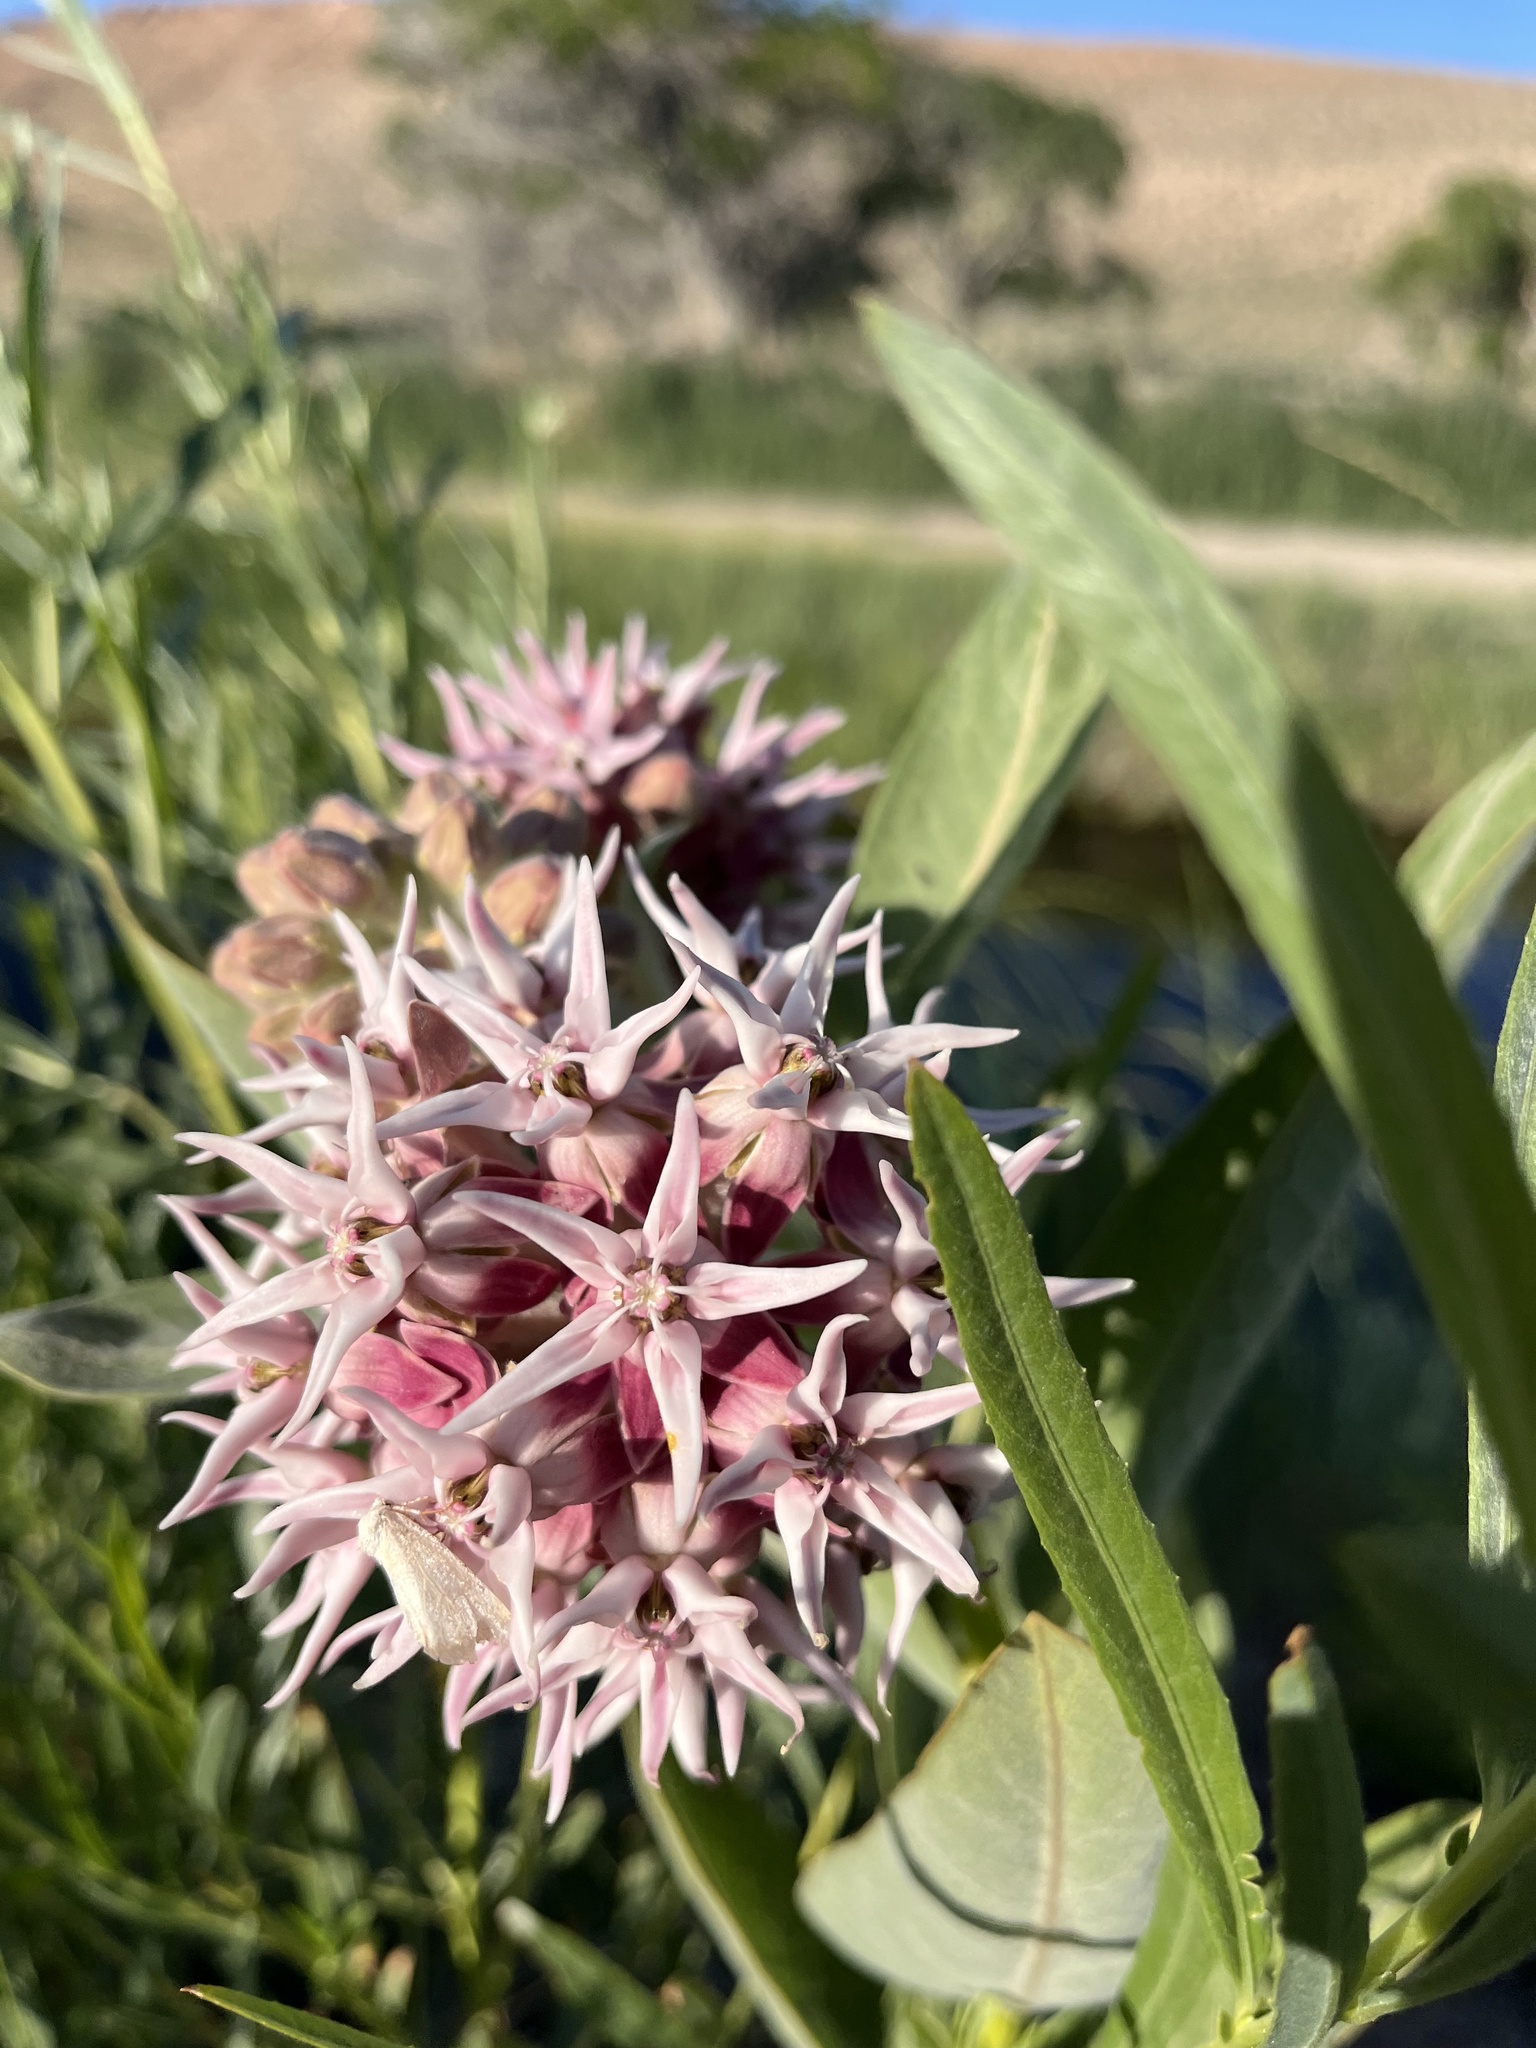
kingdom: Plantae
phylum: Tracheophyta
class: Magnoliopsida
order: Gentianales
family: Apocynaceae
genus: Asclepias
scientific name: Asclepias speciosa
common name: Showy milkweed
